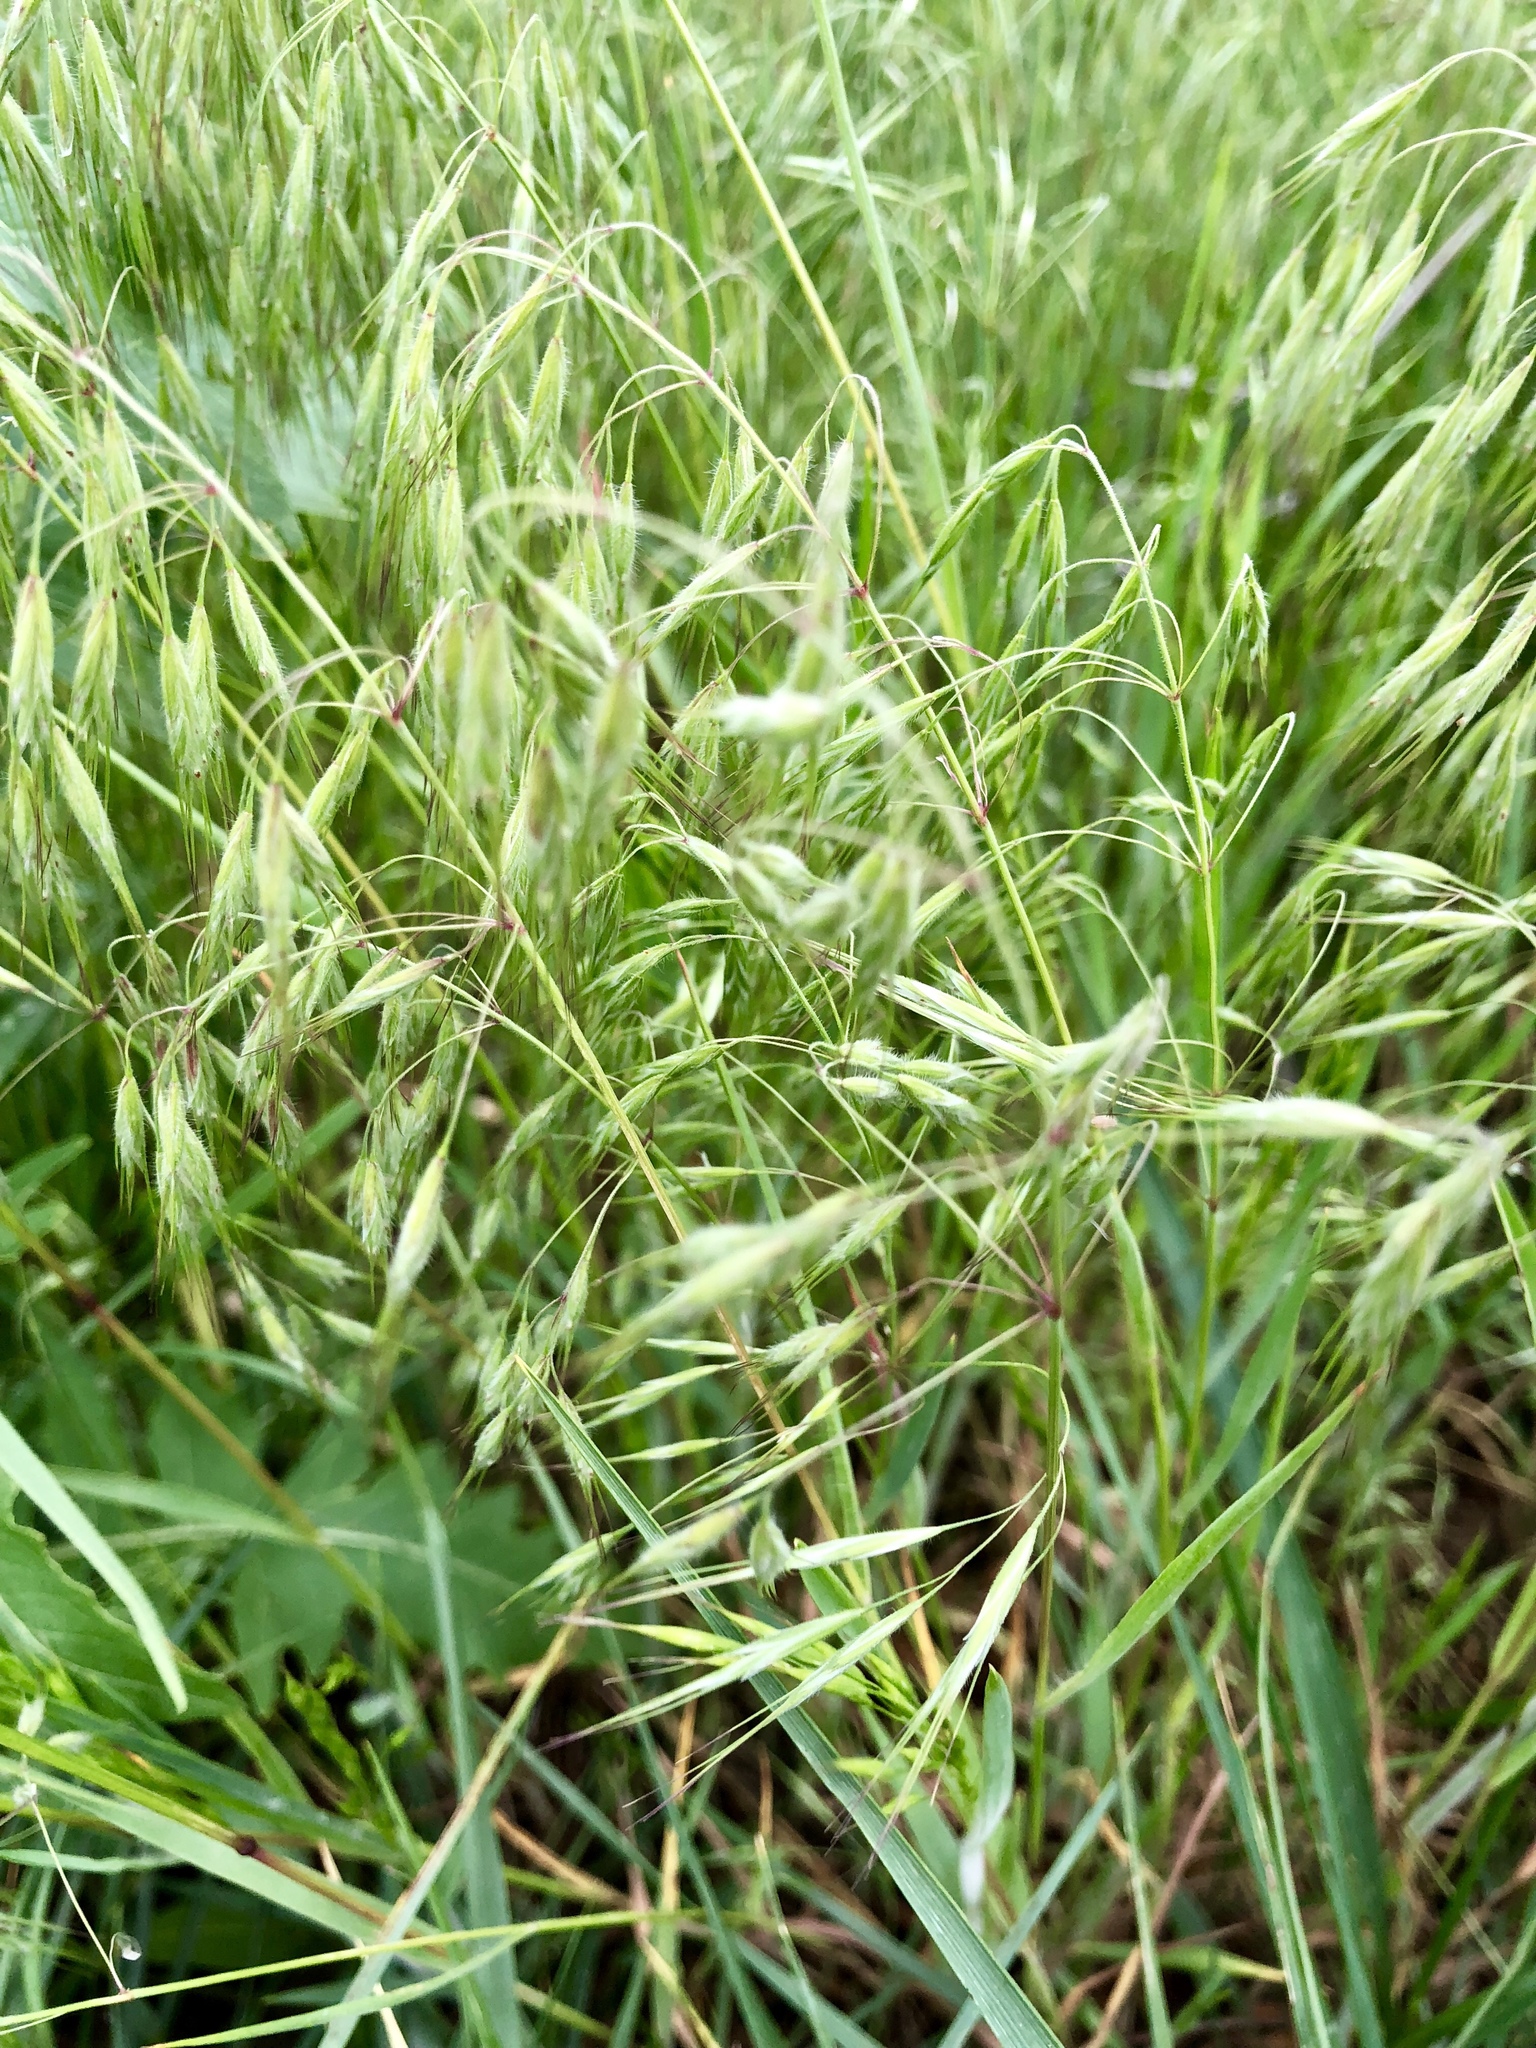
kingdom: Plantae
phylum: Tracheophyta
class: Liliopsida
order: Poales
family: Poaceae
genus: Bromus
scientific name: Bromus tectorum
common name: Cheatgrass
